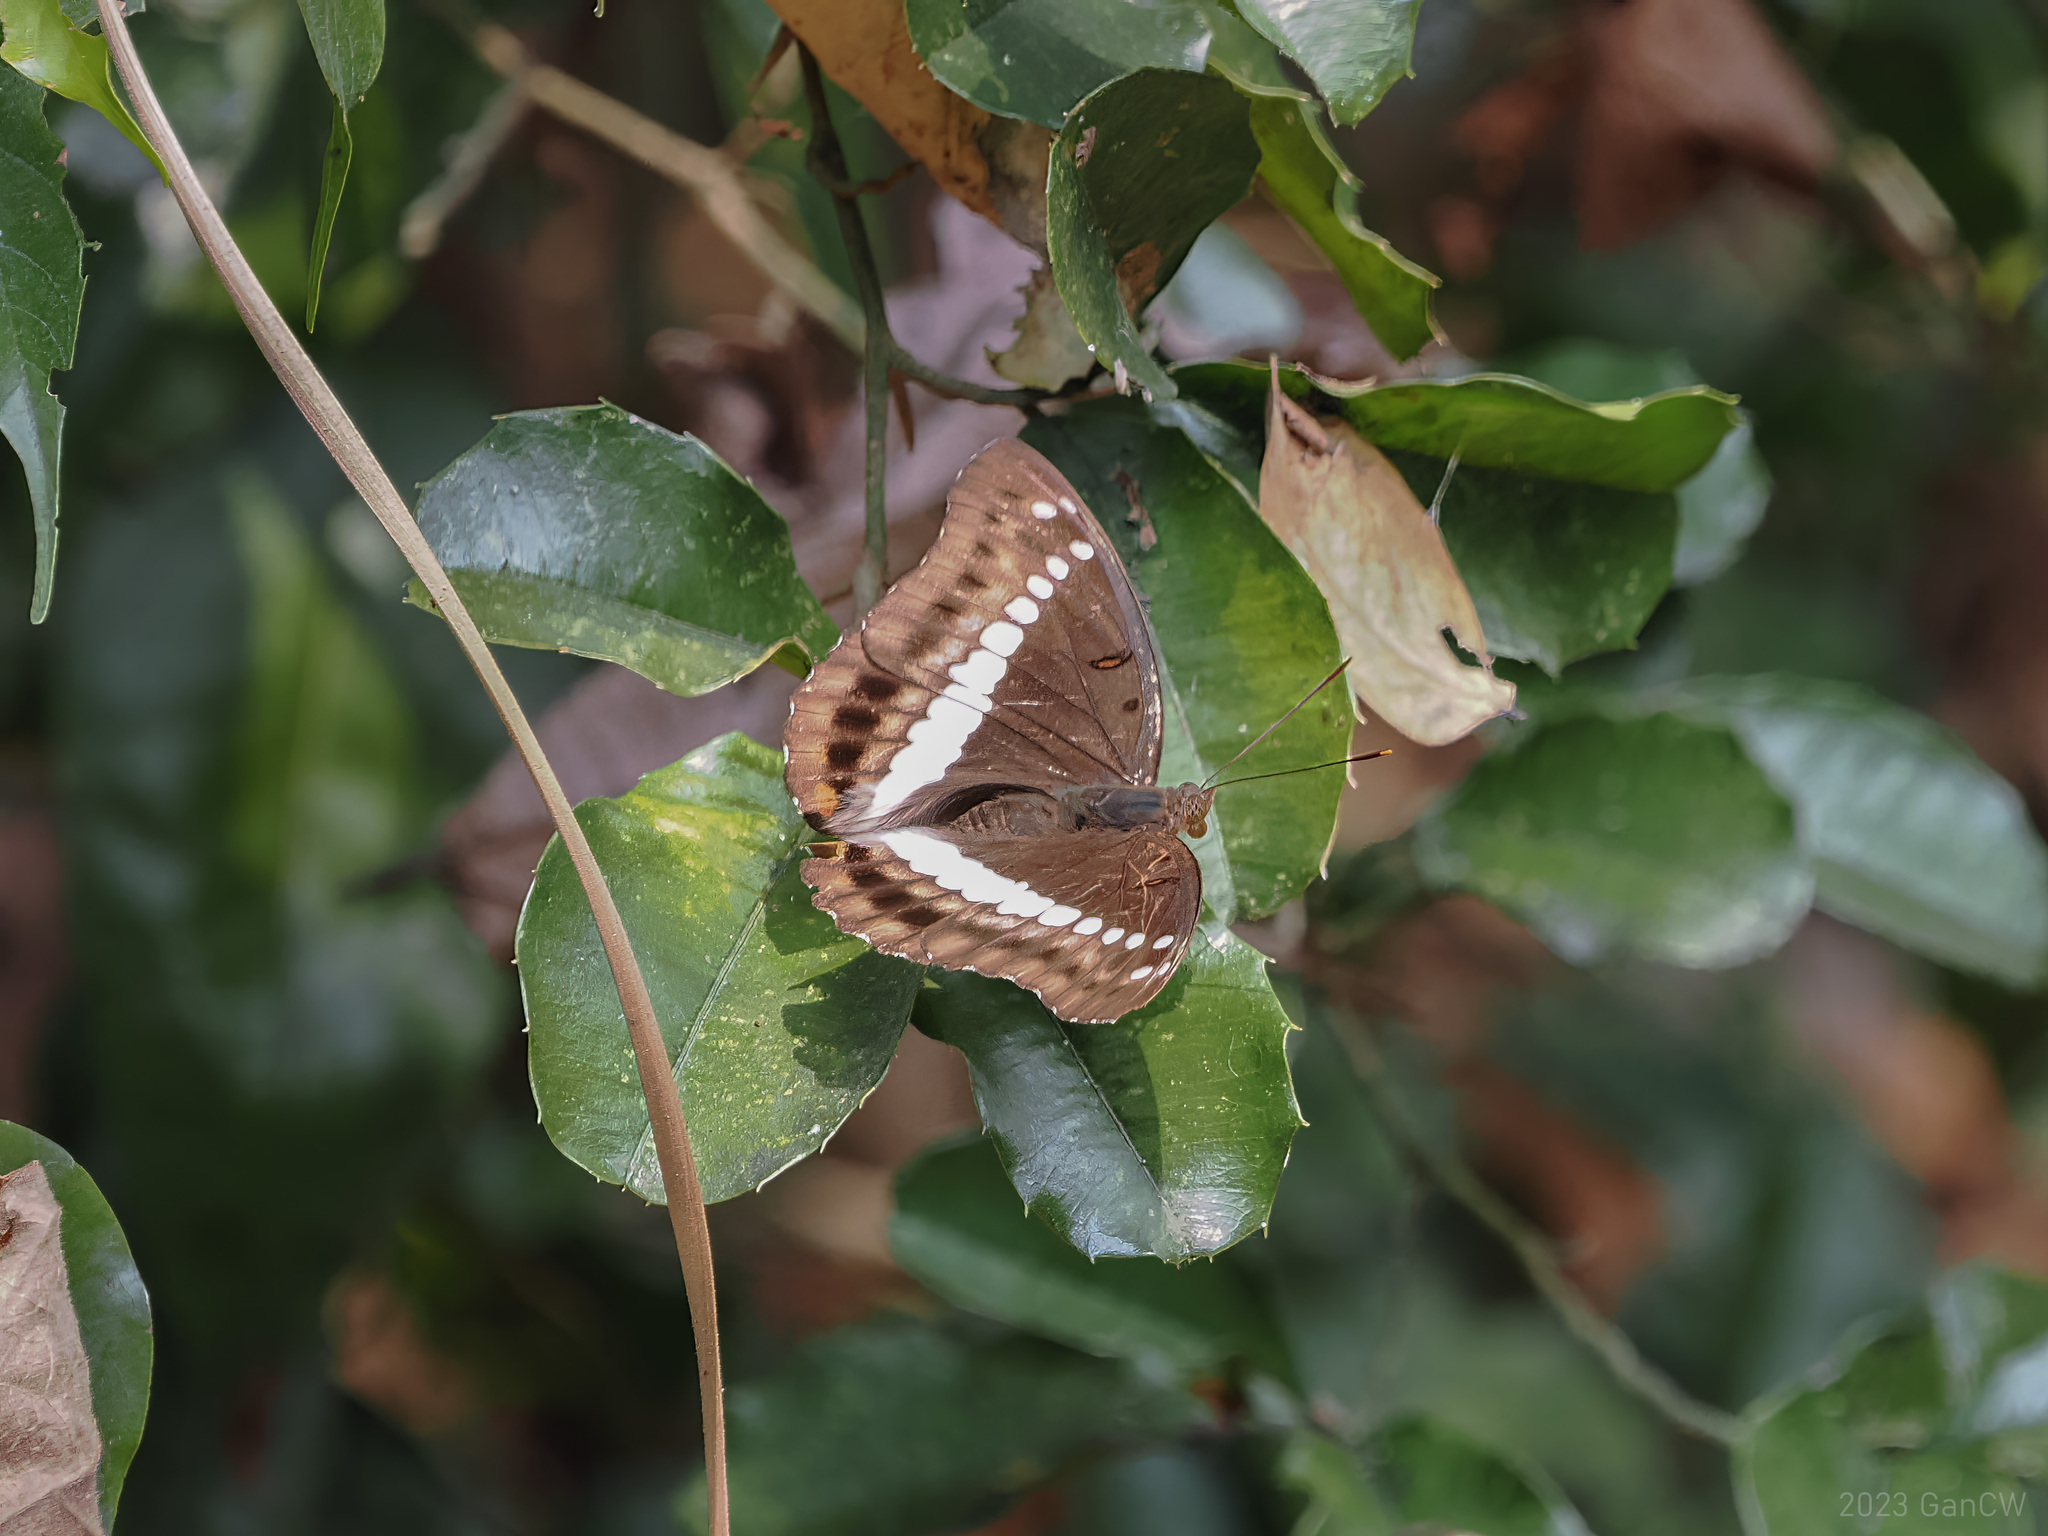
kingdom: Animalia
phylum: Arthropoda
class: Insecta
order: Lepidoptera
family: Nymphalidae
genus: Euthalia
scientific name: Euthalia recta
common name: Redtail marquis
